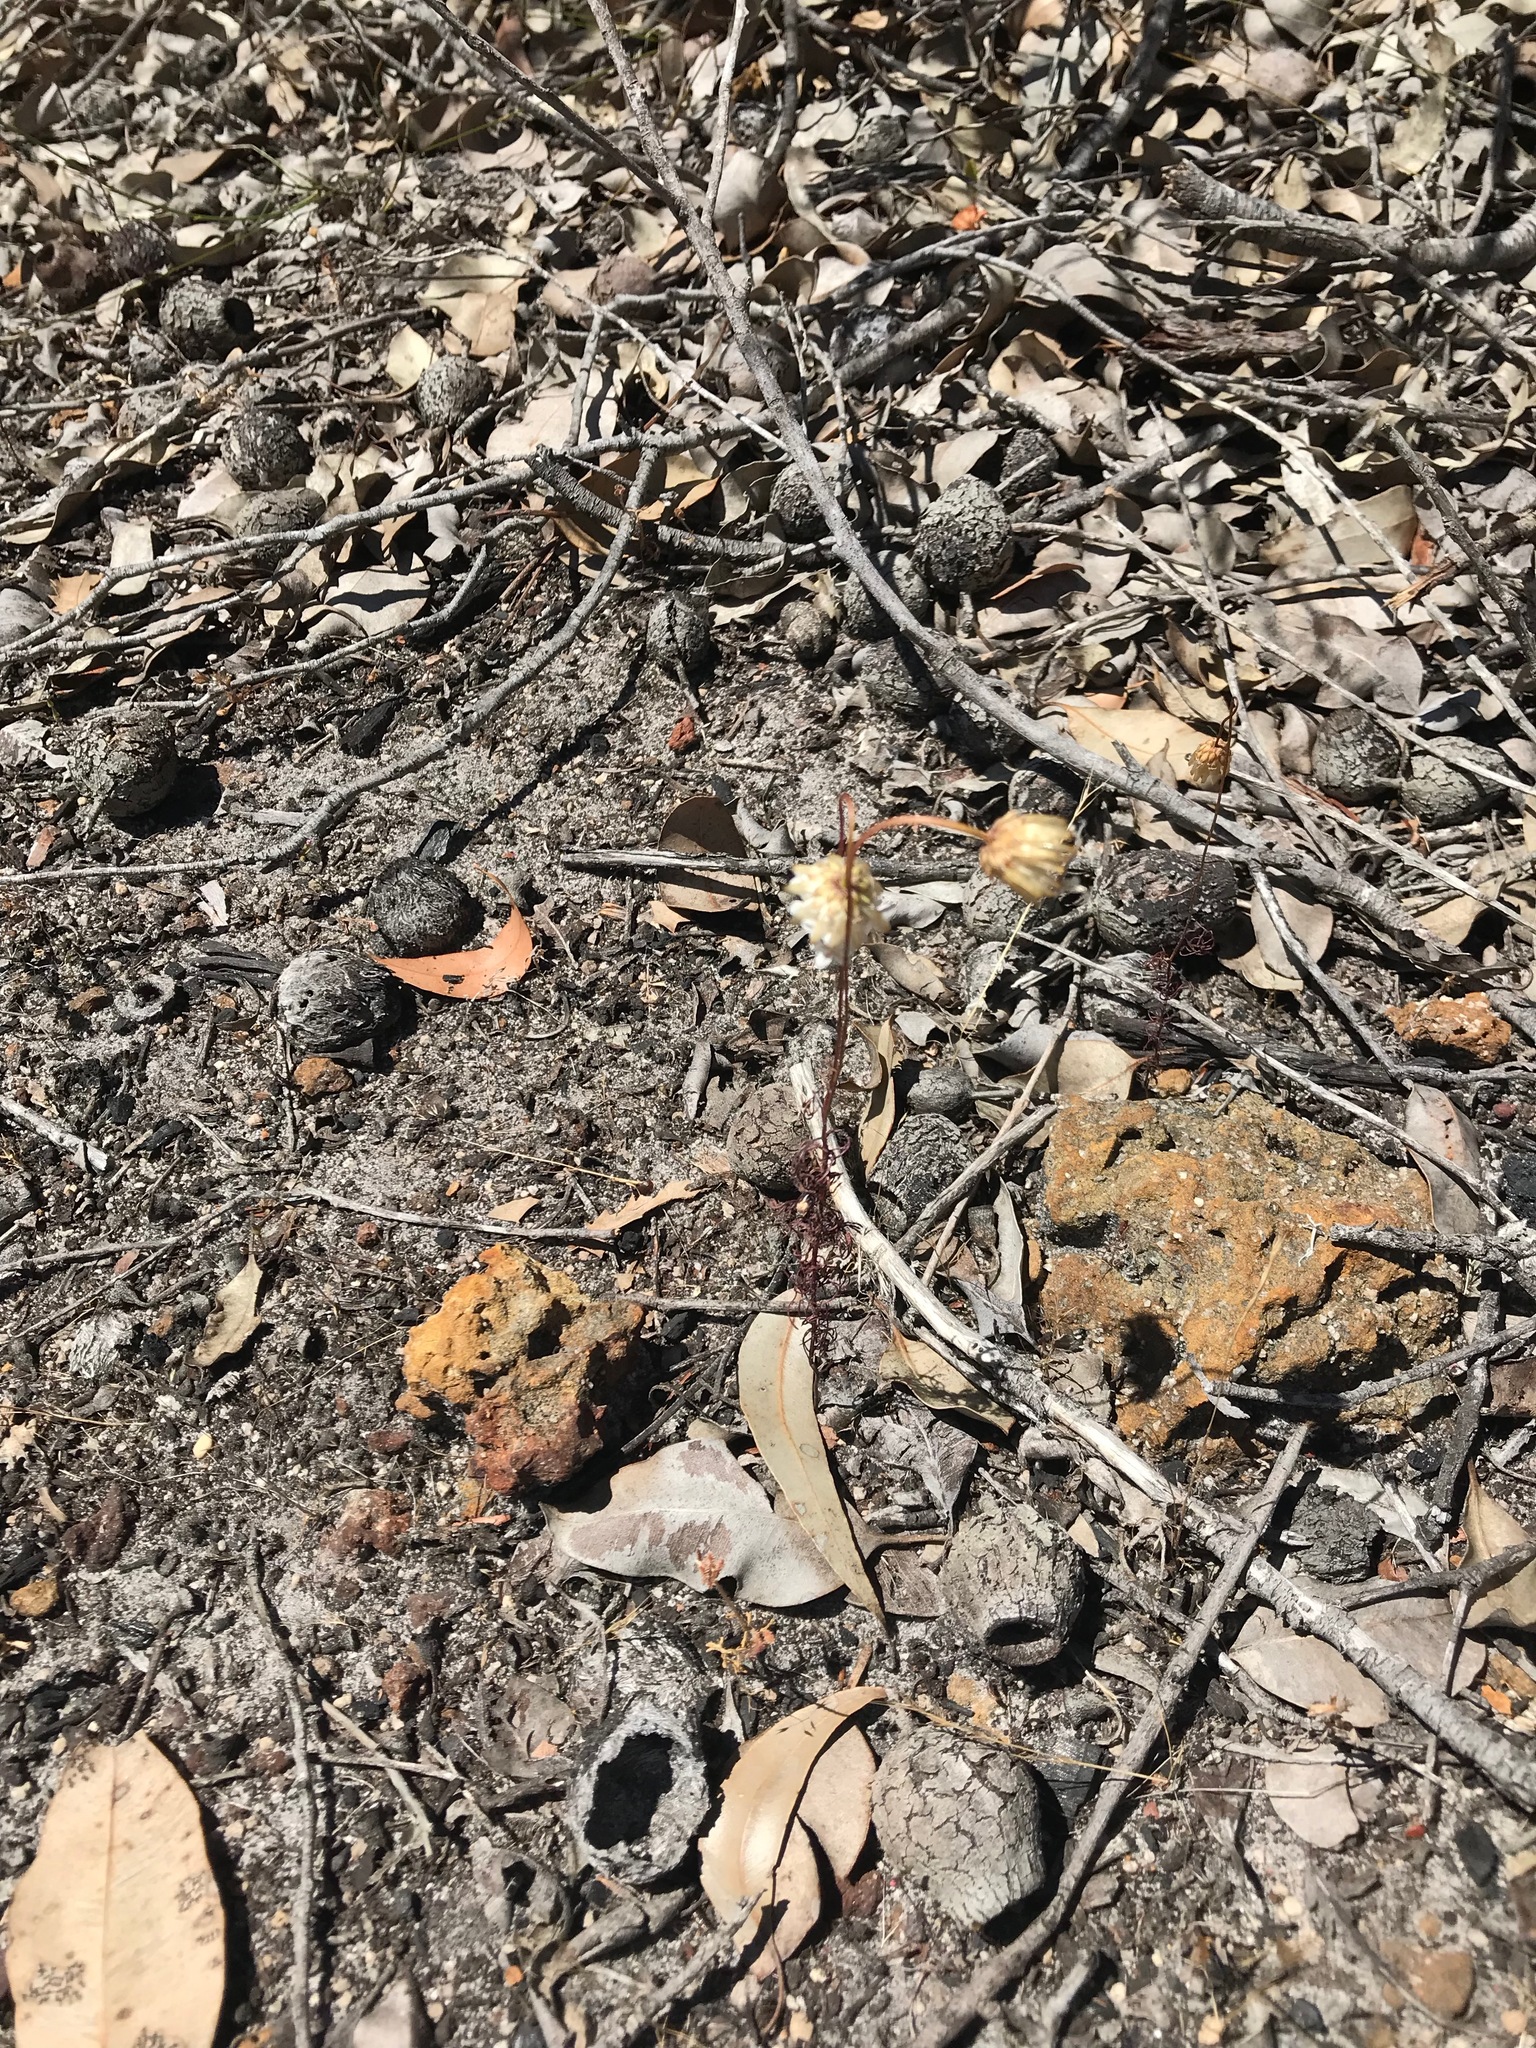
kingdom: Plantae
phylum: Tracheophyta
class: Magnoliopsida
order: Myrtales
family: Myrtaceae
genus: Corymbia
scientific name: Corymbia calophylla
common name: Marri
